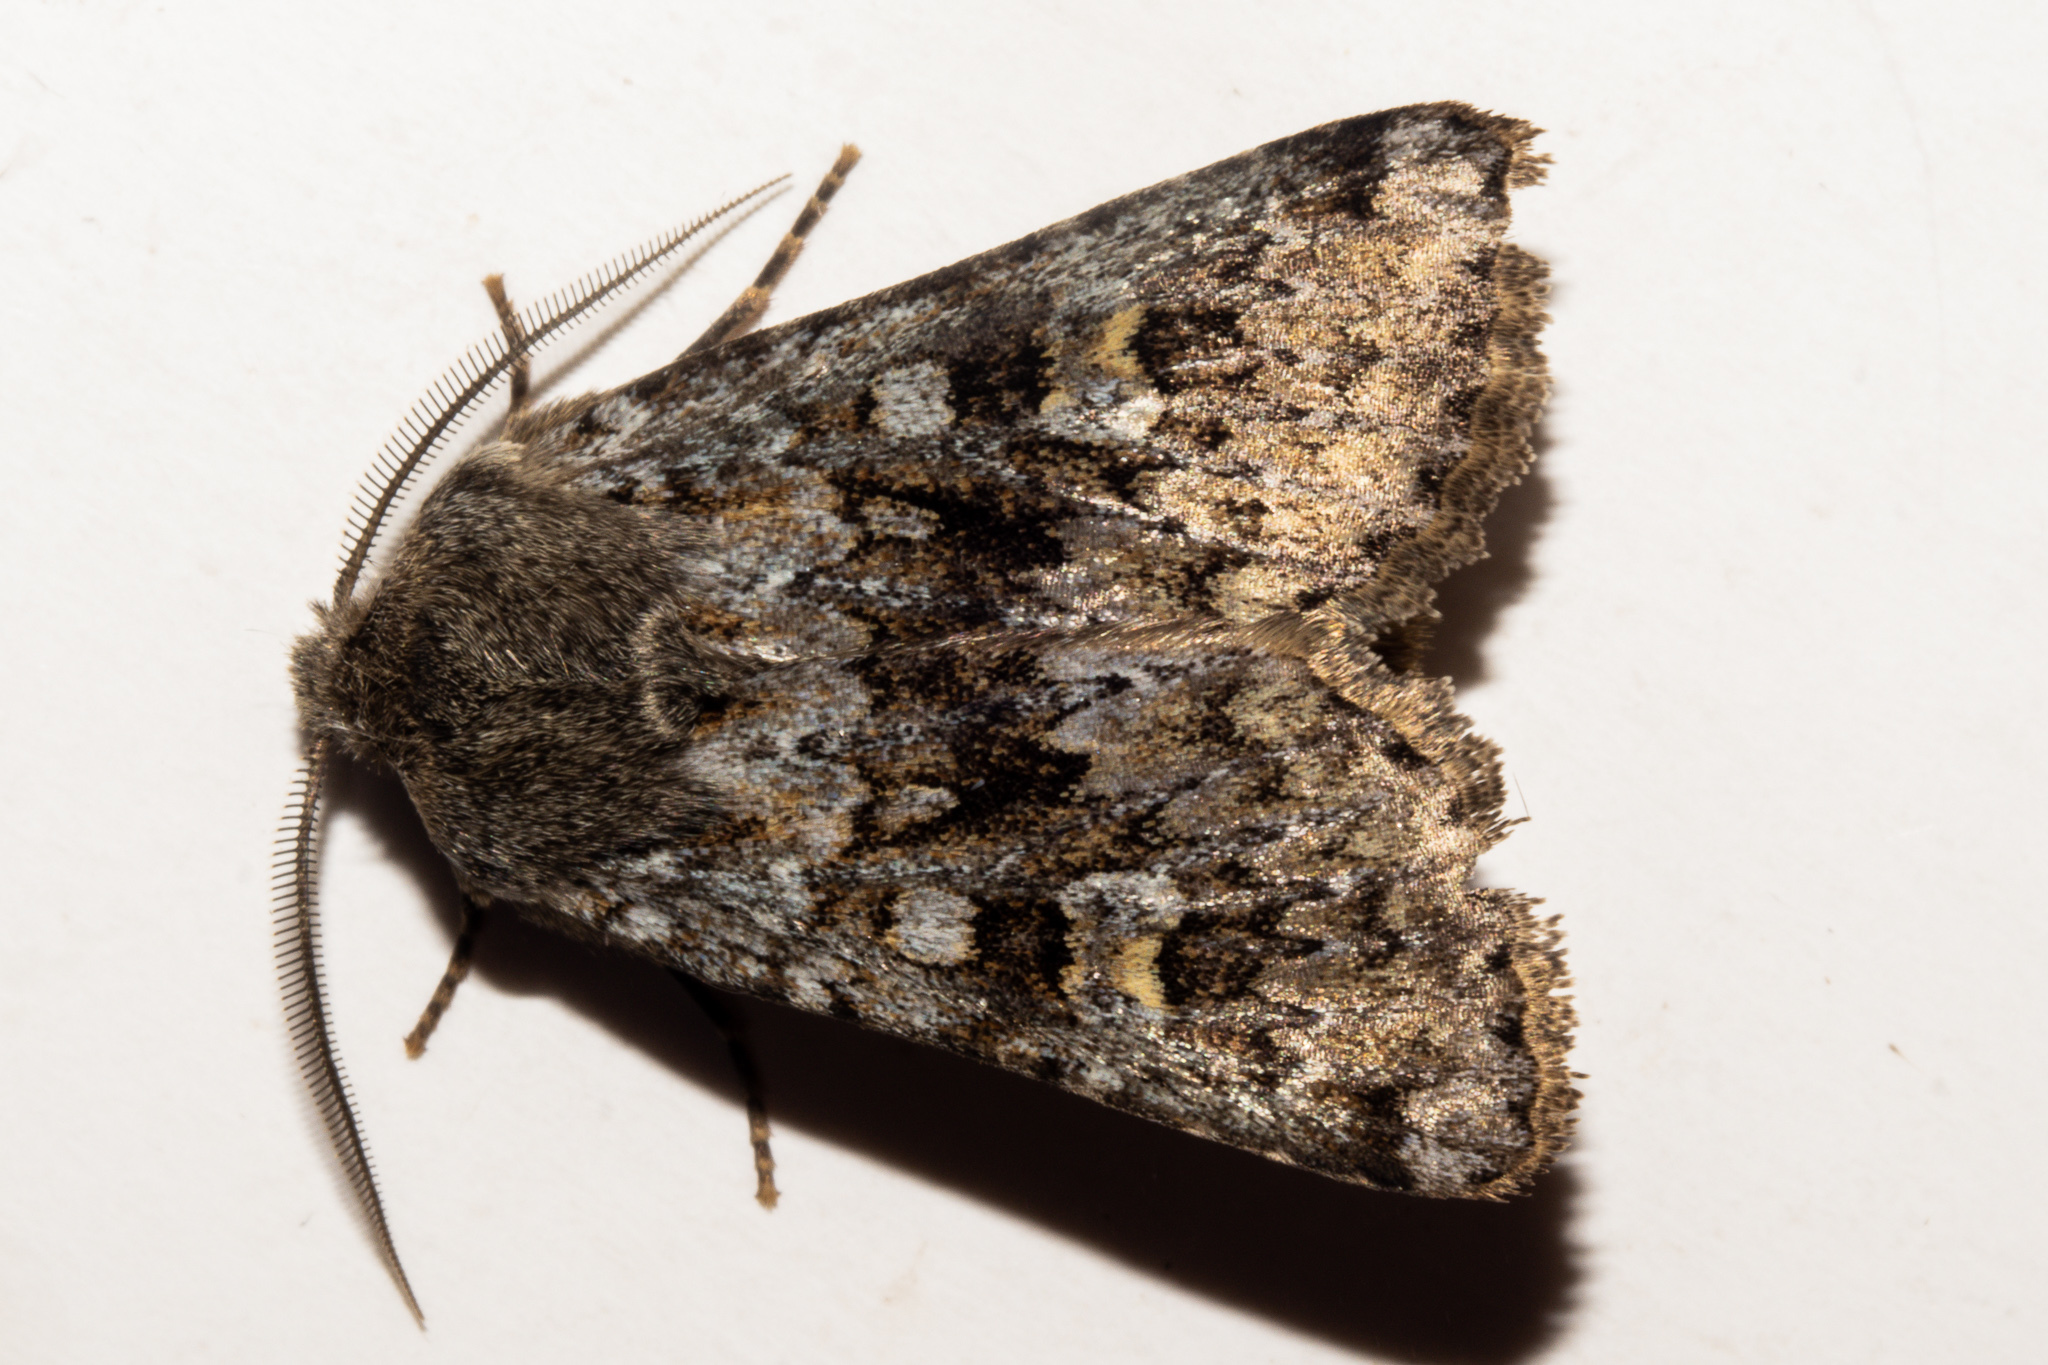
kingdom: Animalia
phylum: Arthropoda
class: Insecta
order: Lepidoptera
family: Noctuidae
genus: Ichneutica
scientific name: Ichneutica
